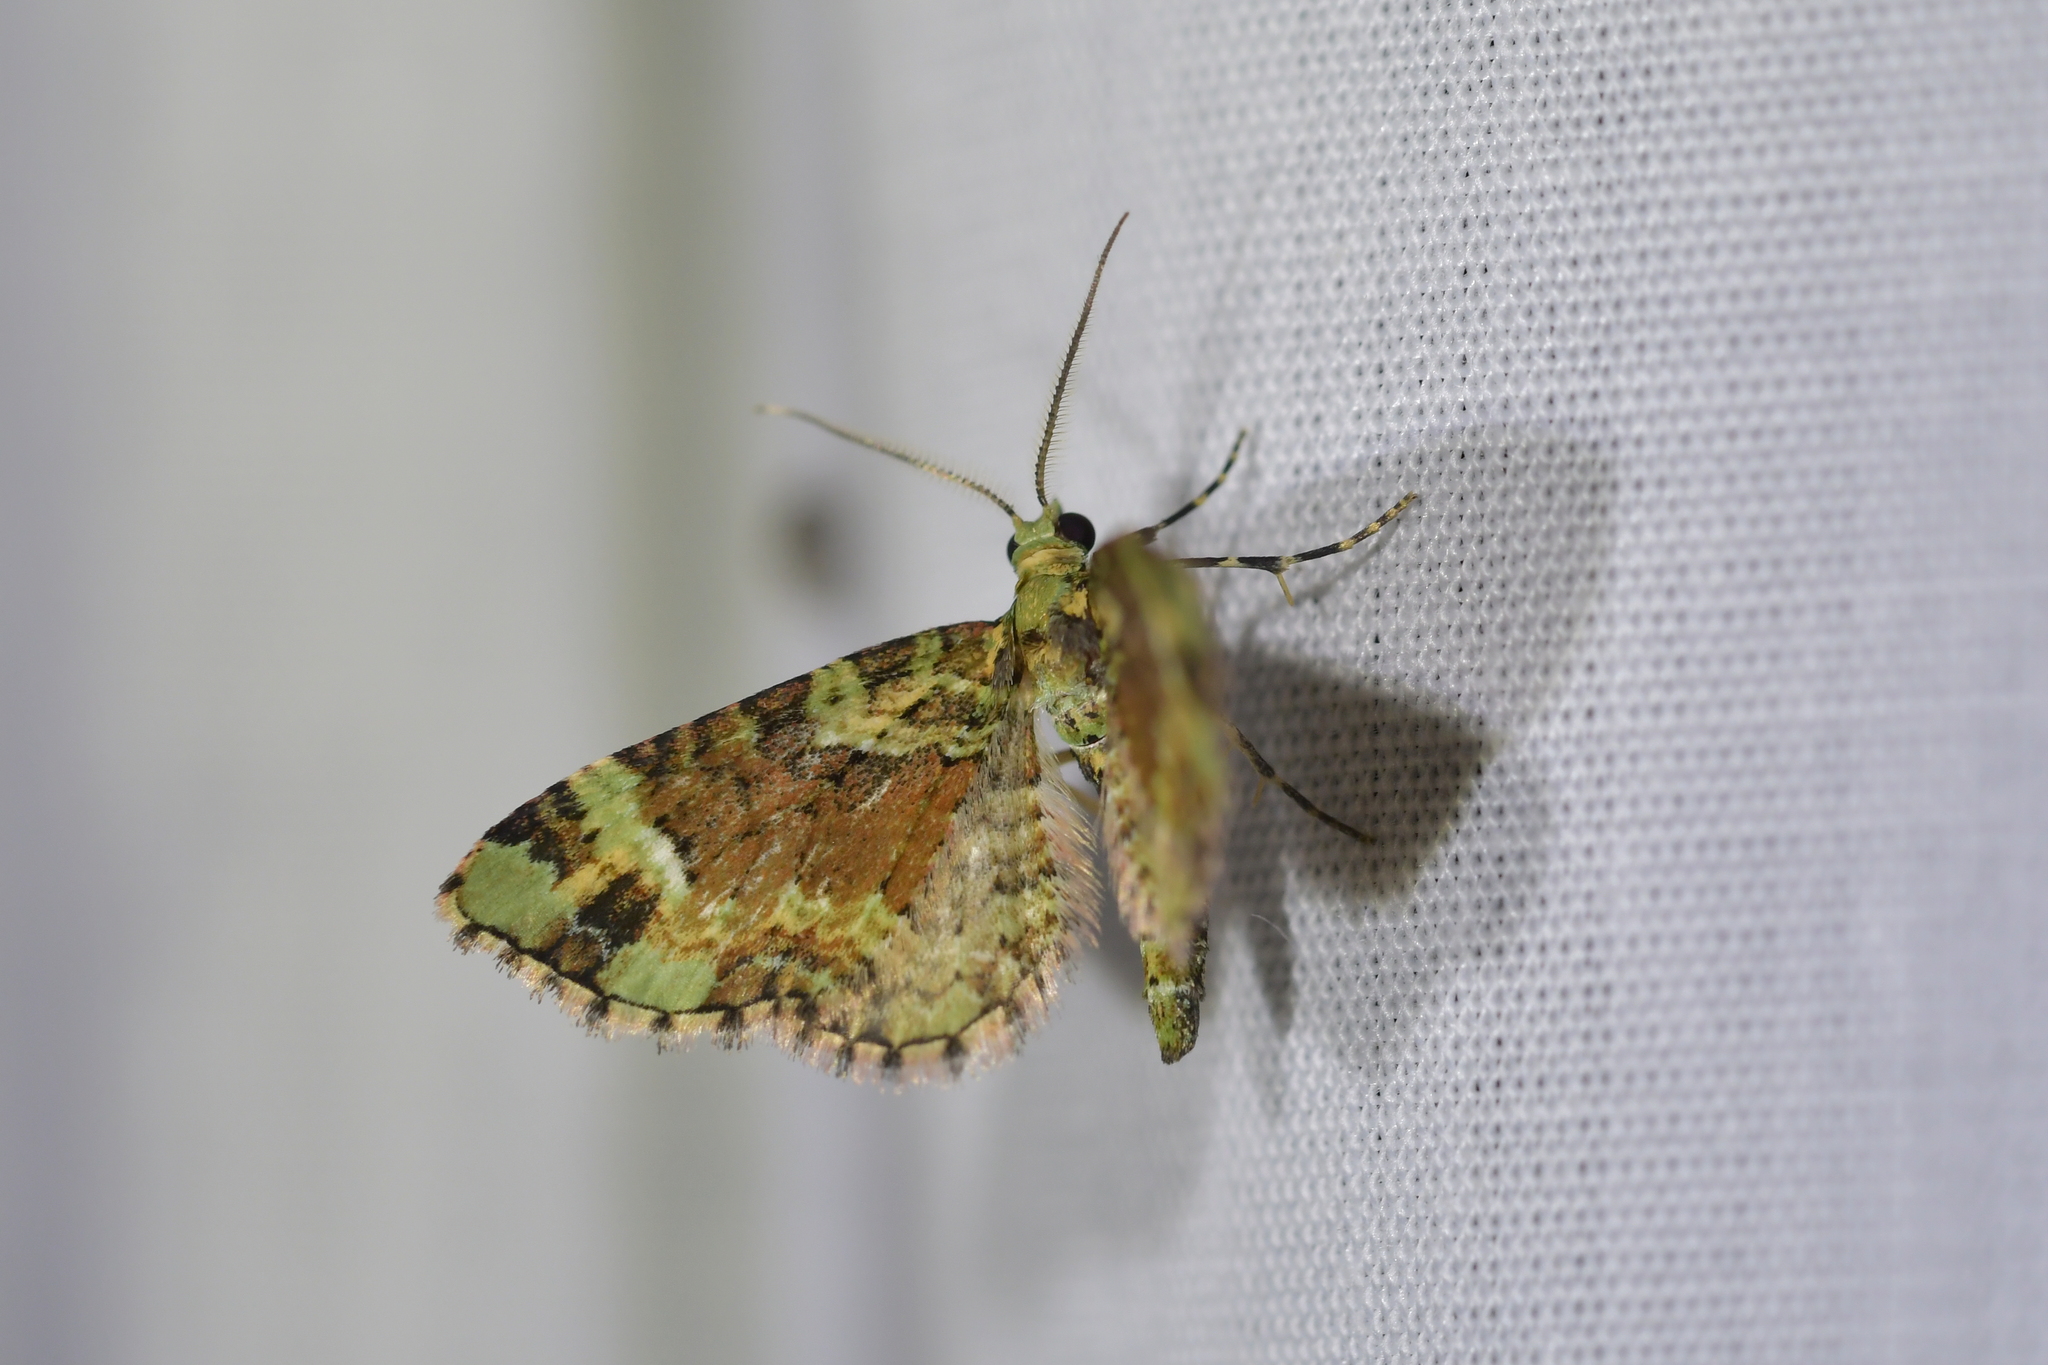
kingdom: Animalia
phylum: Arthropoda
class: Insecta
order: Lepidoptera
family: Geometridae
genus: Pasiphila
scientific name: Pasiphila bilineolata
